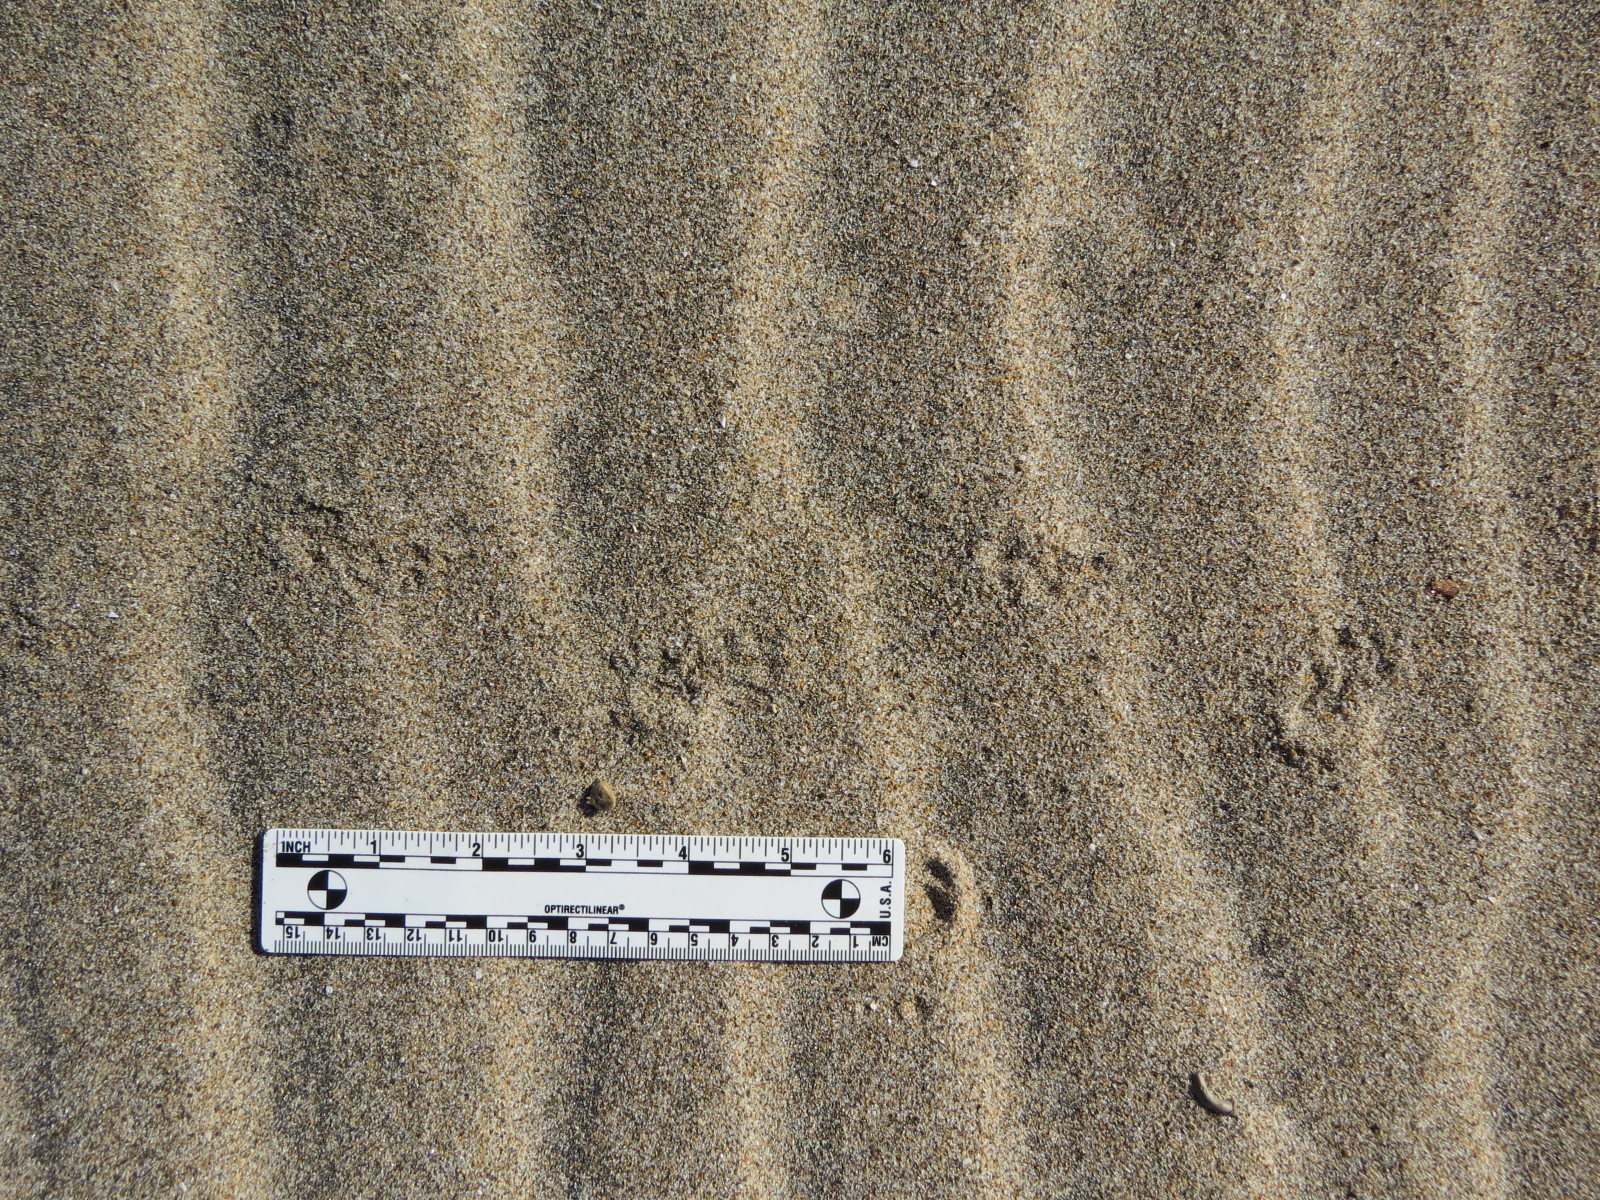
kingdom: Animalia
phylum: Chordata
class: Mammalia
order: Rodentia
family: Geomyidae
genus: Thomomys
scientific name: Thomomys bottae
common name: Botta's pocket gopher
